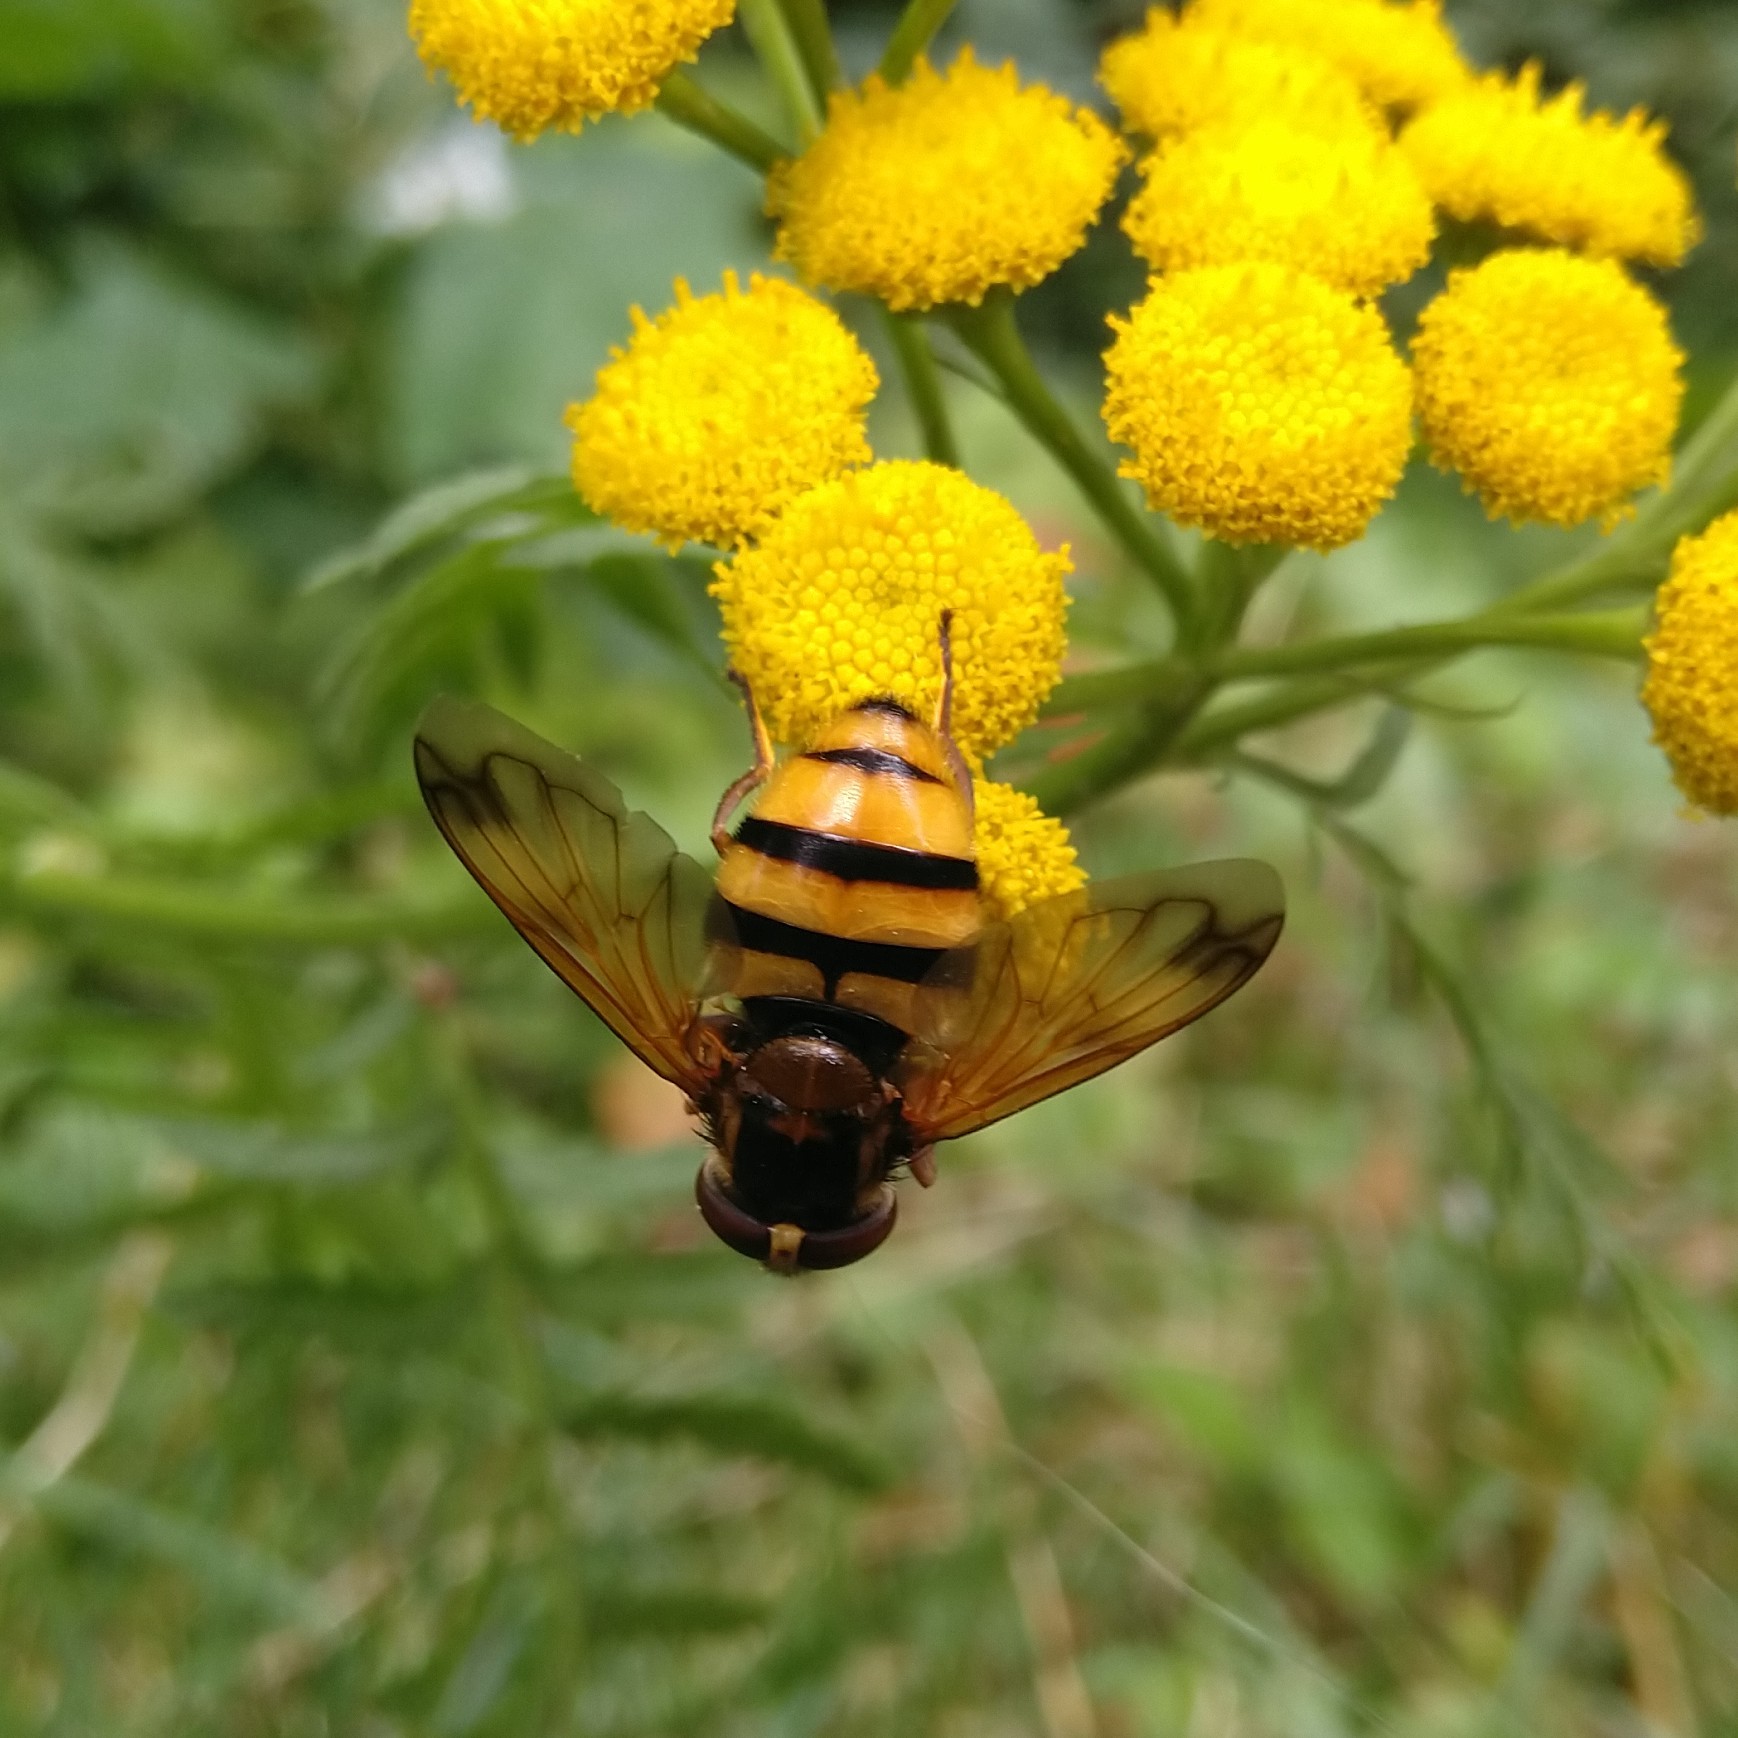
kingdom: Animalia
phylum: Arthropoda
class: Insecta
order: Diptera
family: Syrphidae
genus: Volucella
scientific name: Volucella inanis
